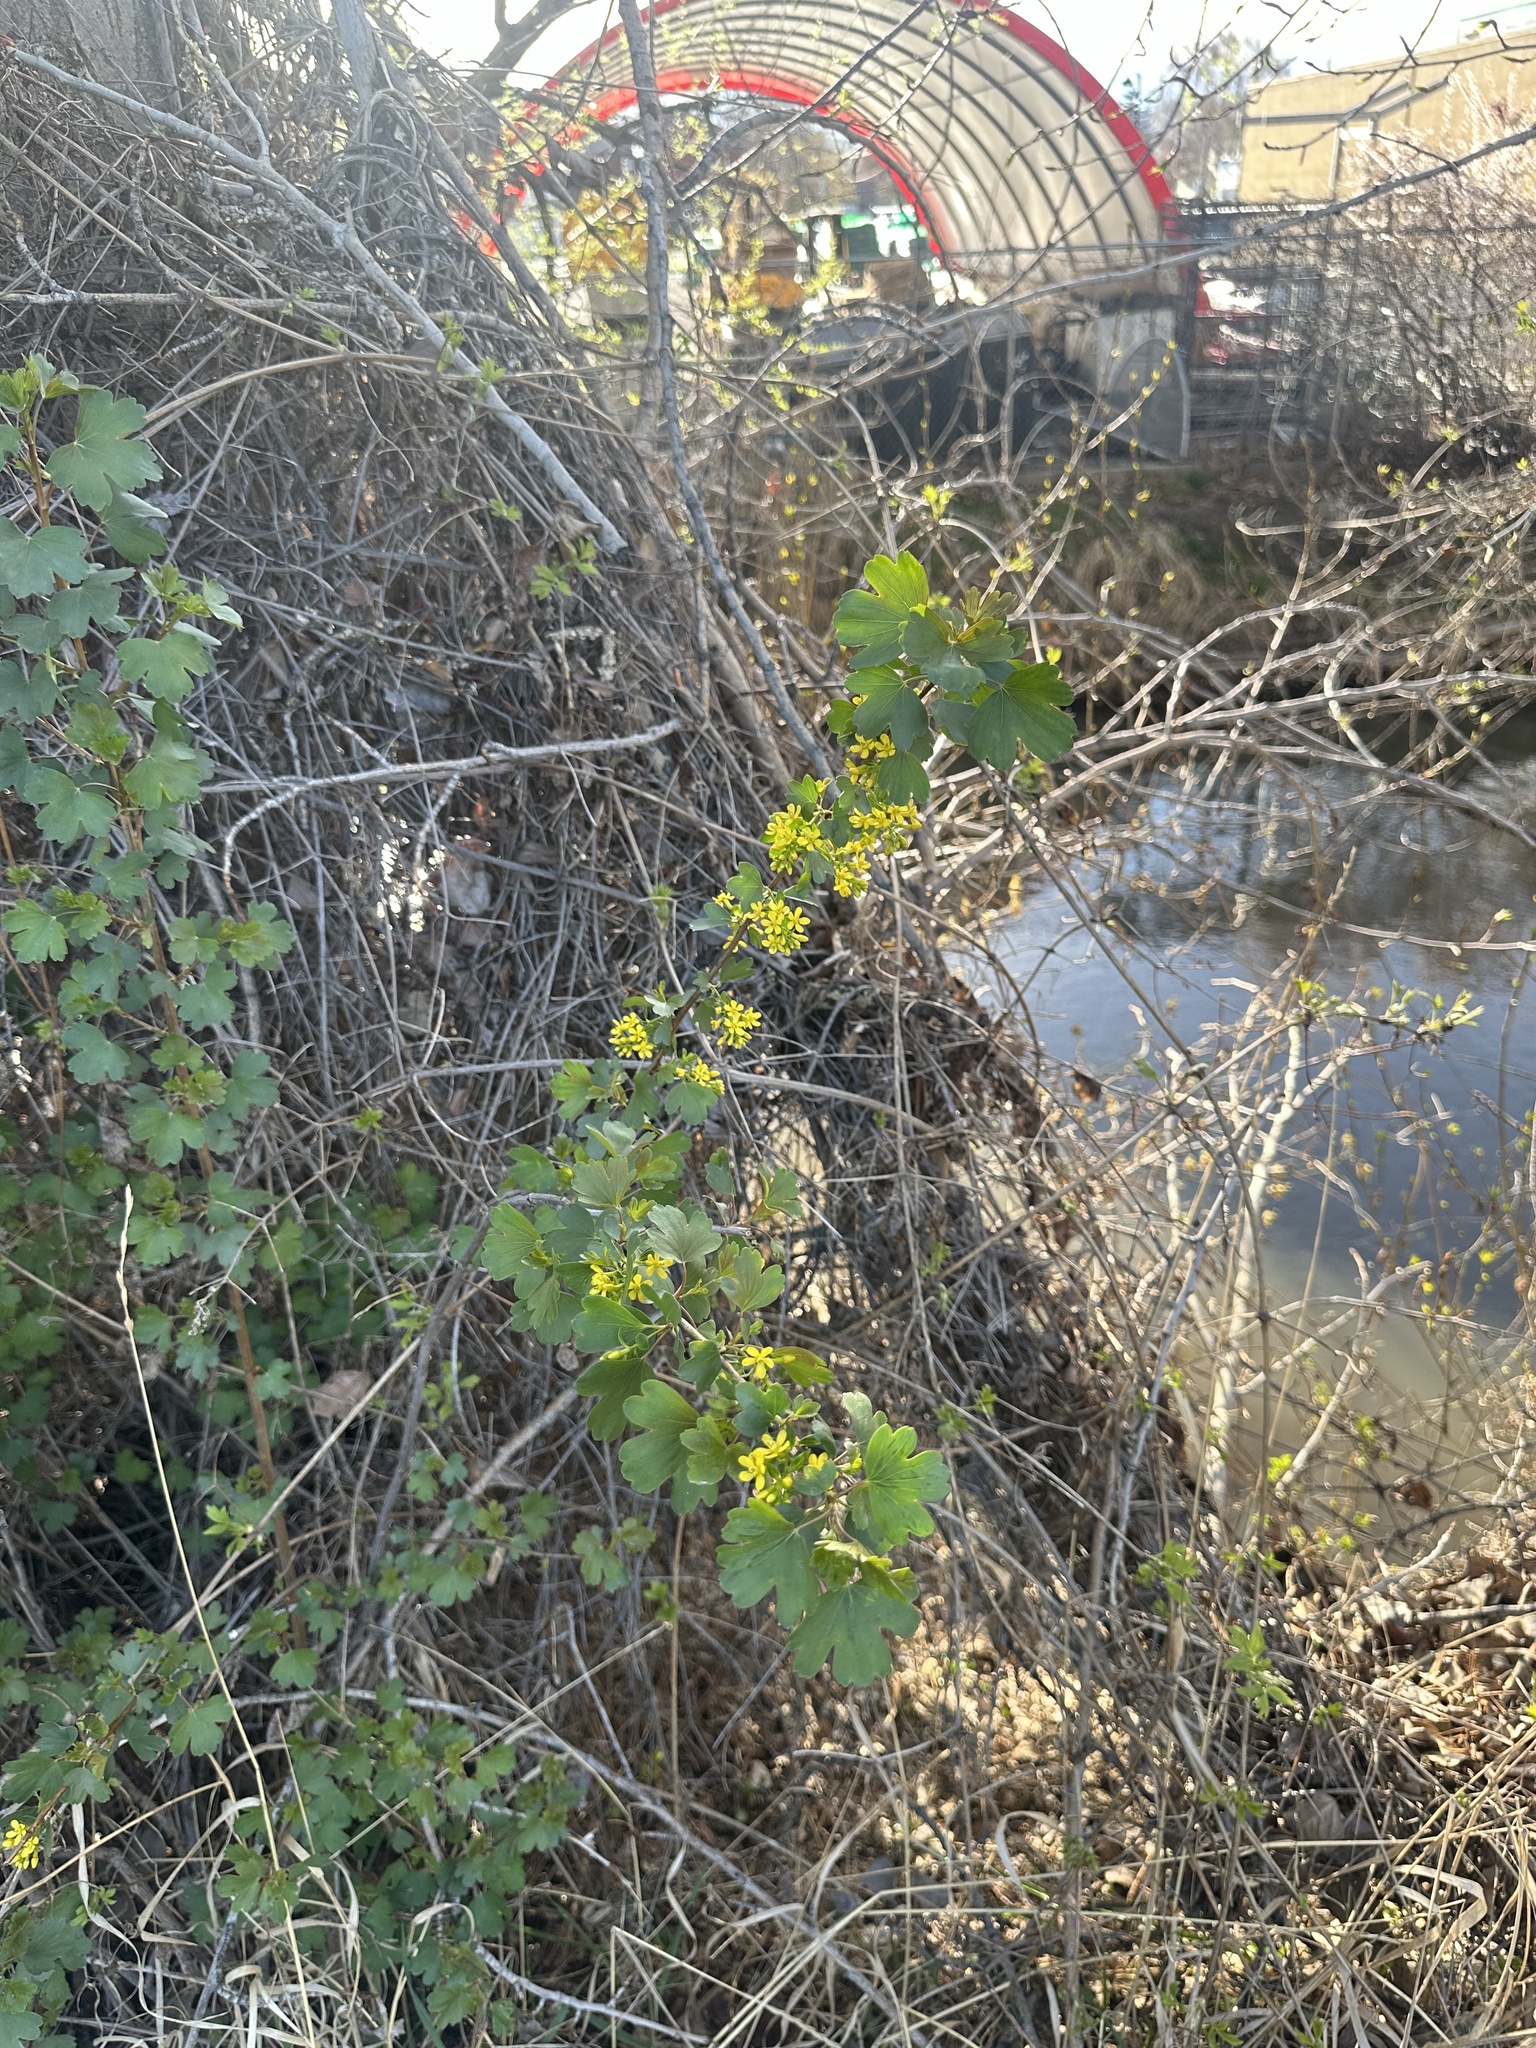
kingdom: Plantae
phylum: Tracheophyta
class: Magnoliopsida
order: Saxifragales
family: Grossulariaceae
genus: Ribes
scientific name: Ribes aureum
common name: Golden currant
